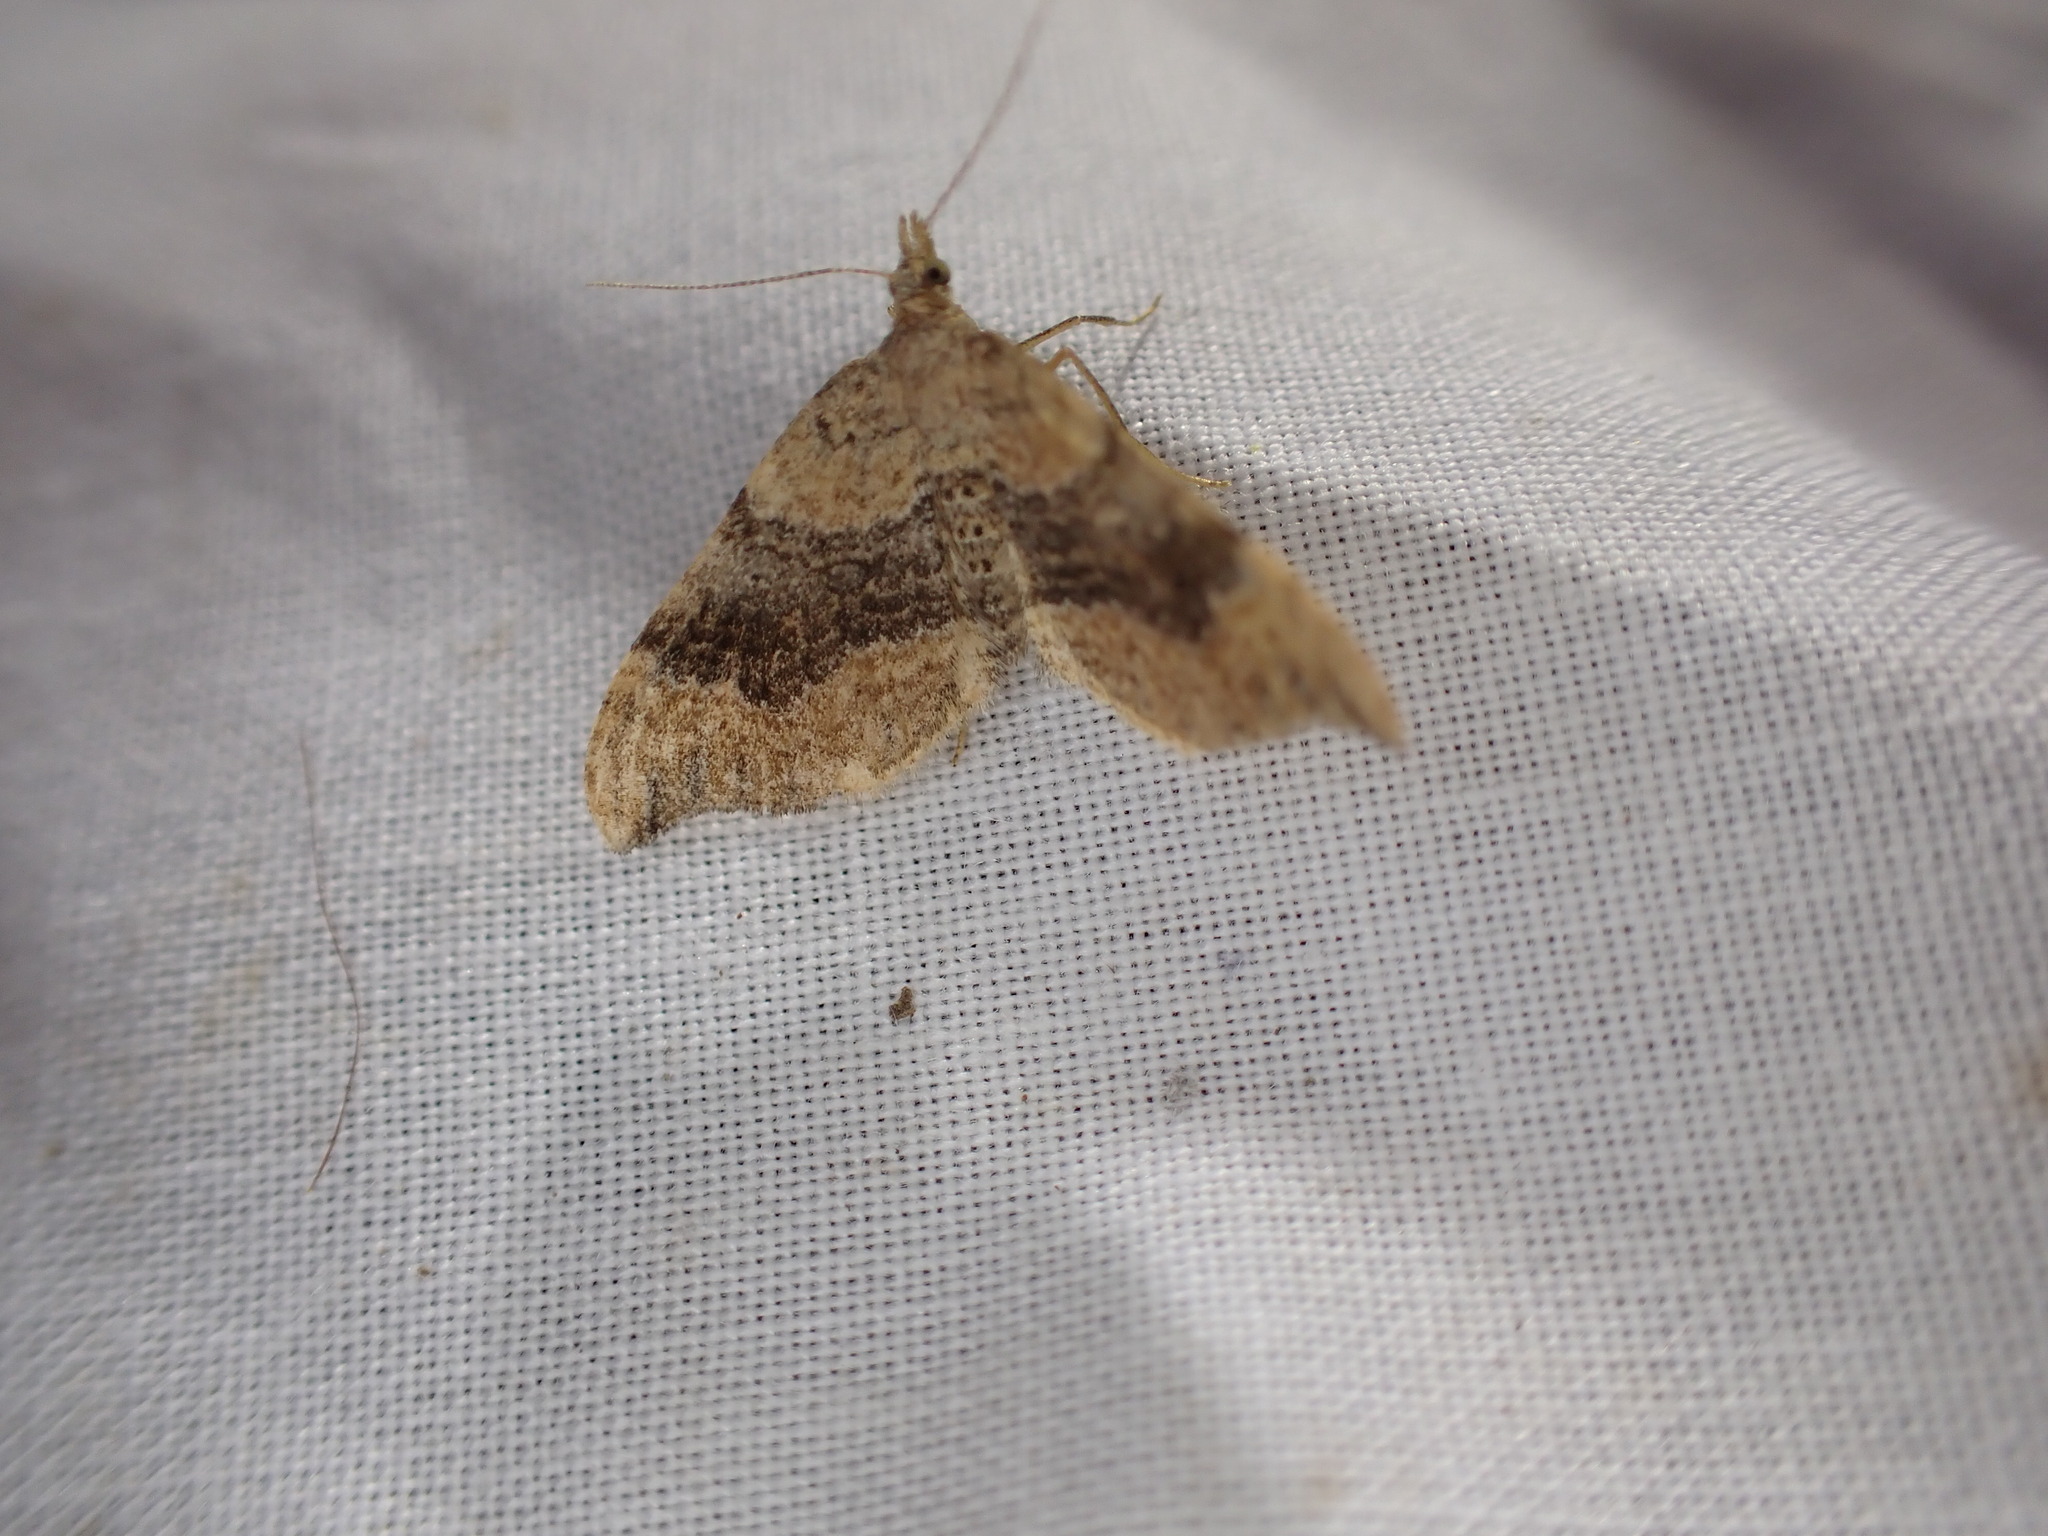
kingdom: Animalia
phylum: Arthropoda
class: Insecta
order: Lepidoptera
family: Geometridae
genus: Homodotis
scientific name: Homodotis megaspilata
